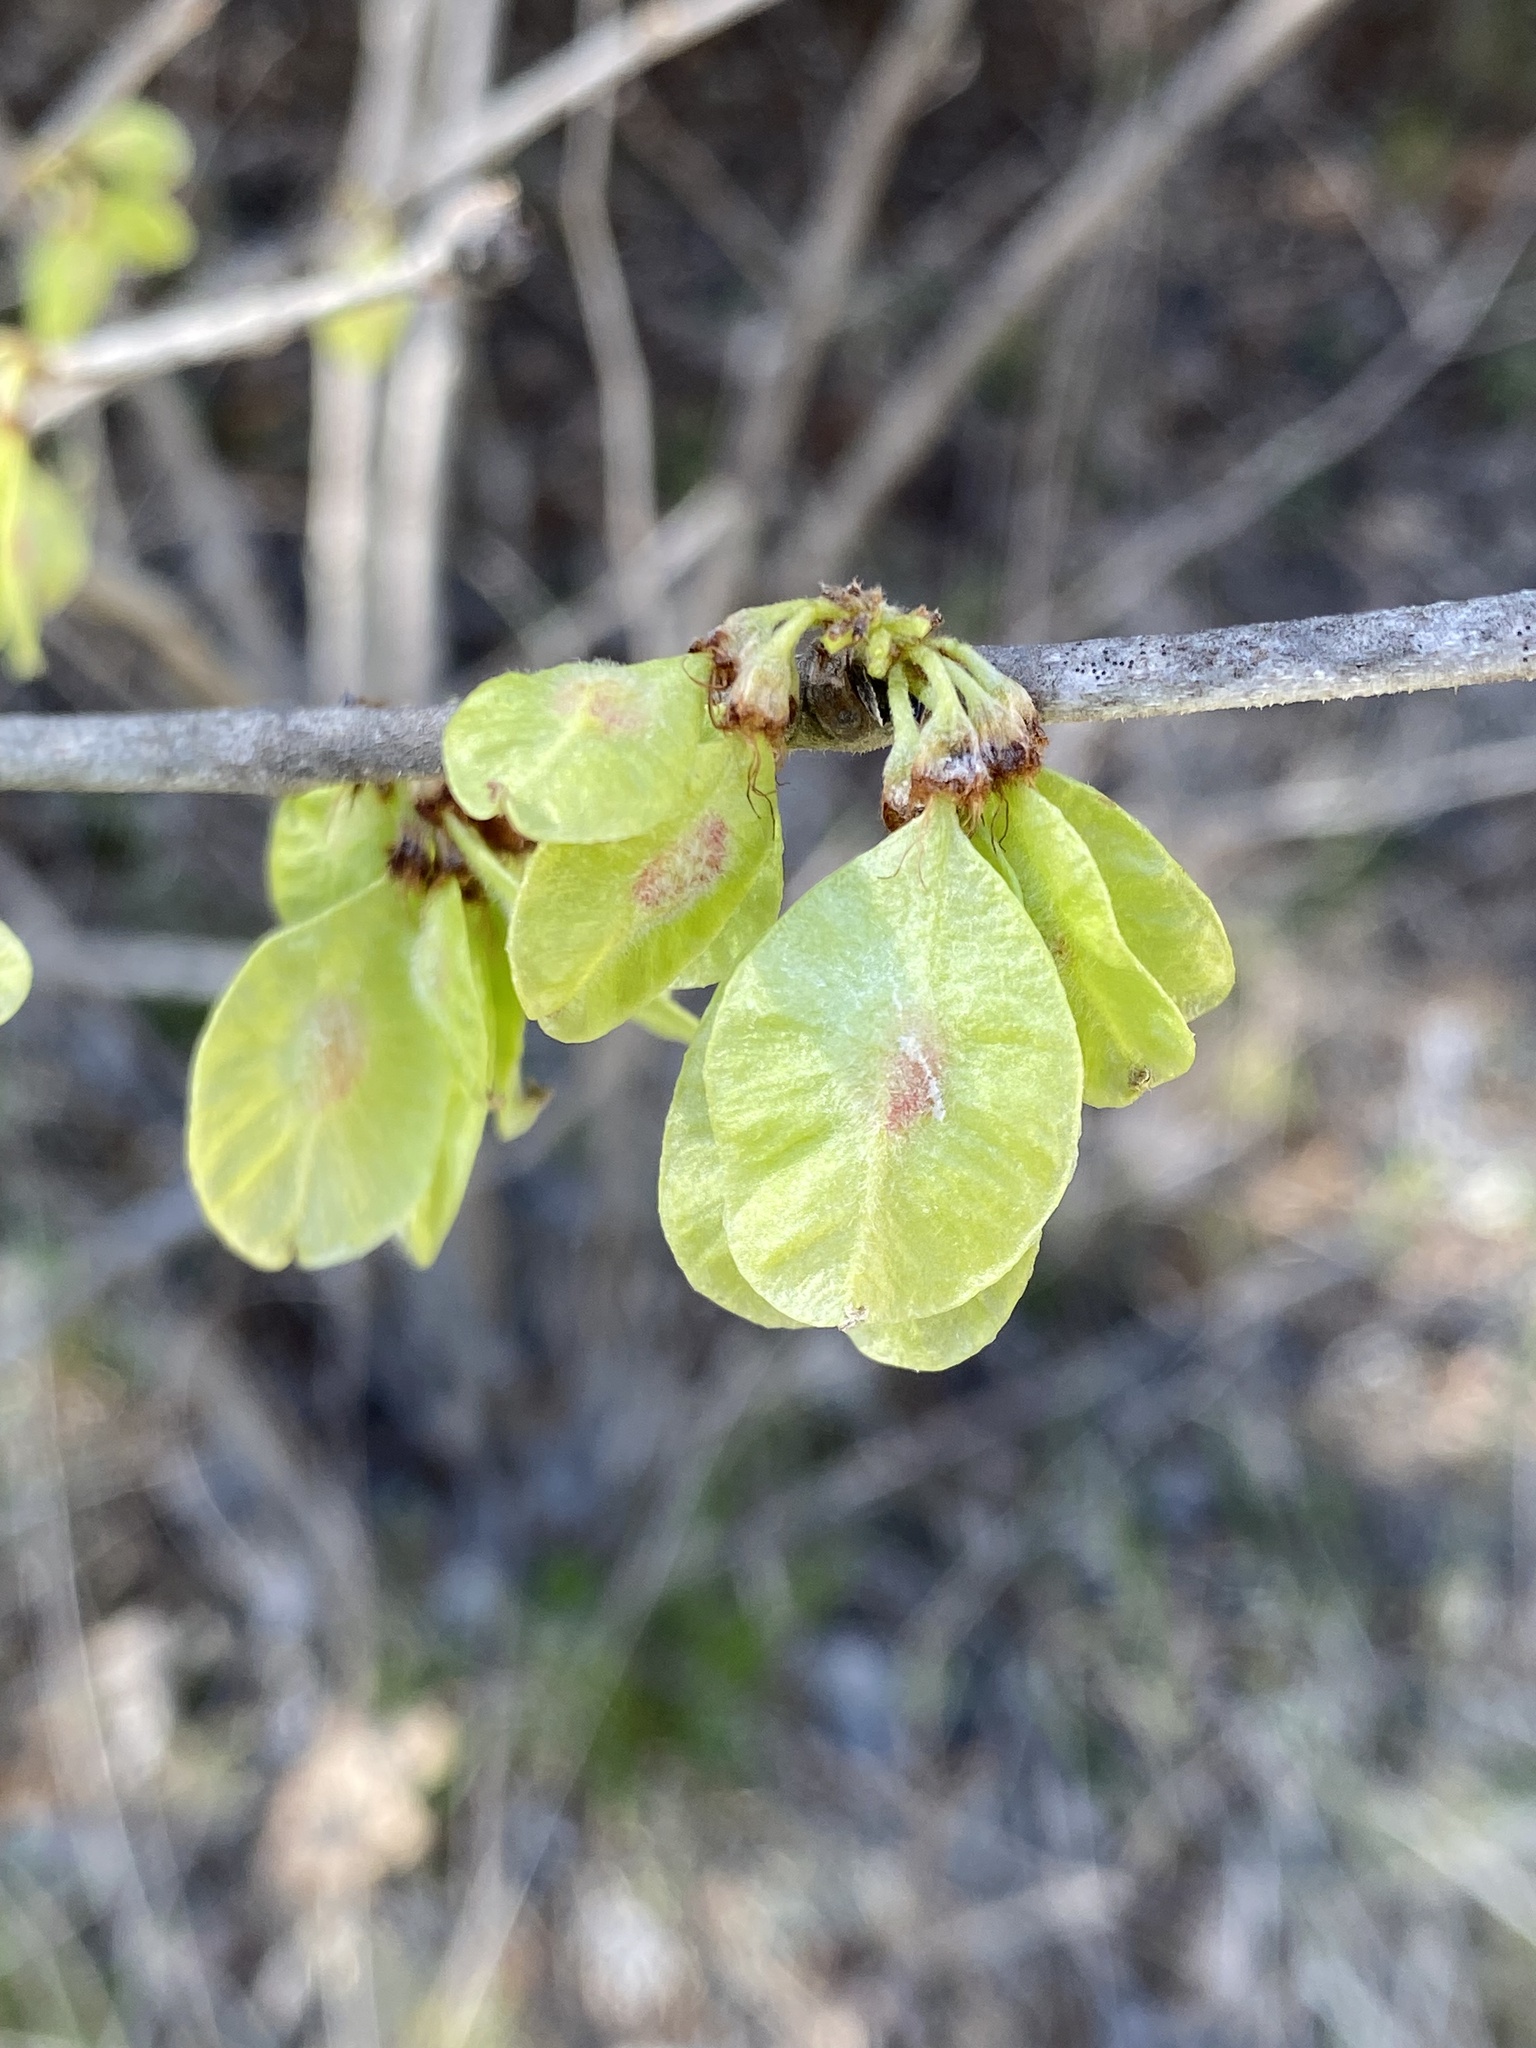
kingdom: Plantae
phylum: Tracheophyta
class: Magnoliopsida
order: Rosales
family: Ulmaceae
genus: Ulmus
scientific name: Ulmus rubra
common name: Slippery elm
